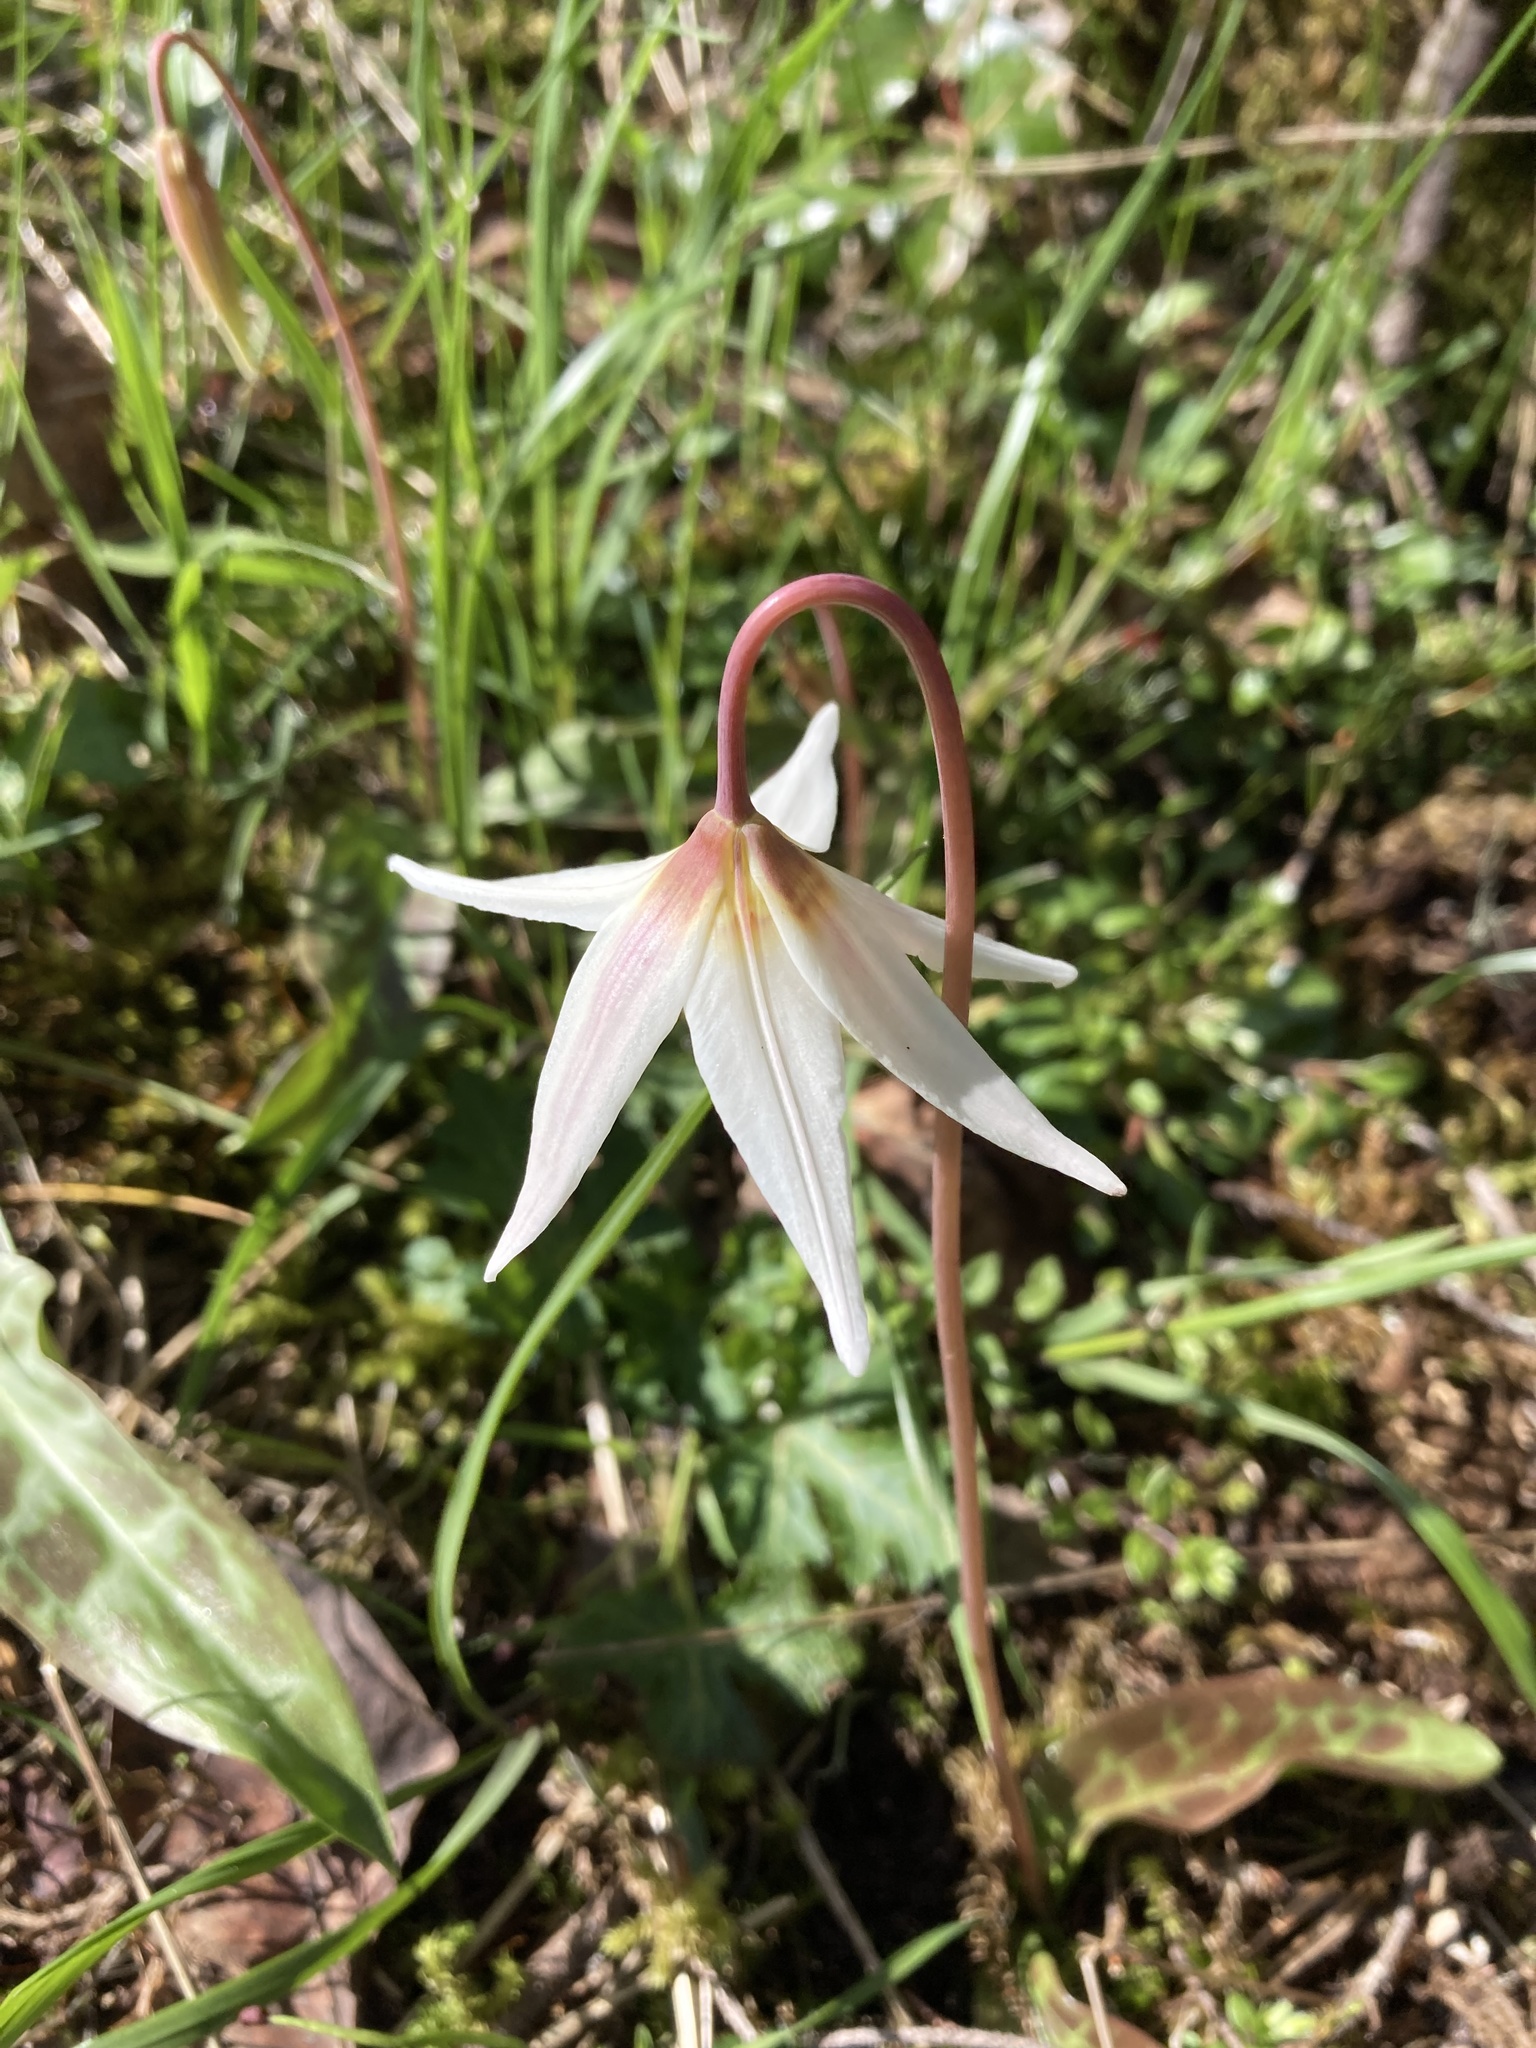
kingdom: Plantae
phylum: Tracheophyta
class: Liliopsida
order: Liliales
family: Liliaceae
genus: Erythronium
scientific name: Erythronium oregonum
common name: Giant adder's-tongue
